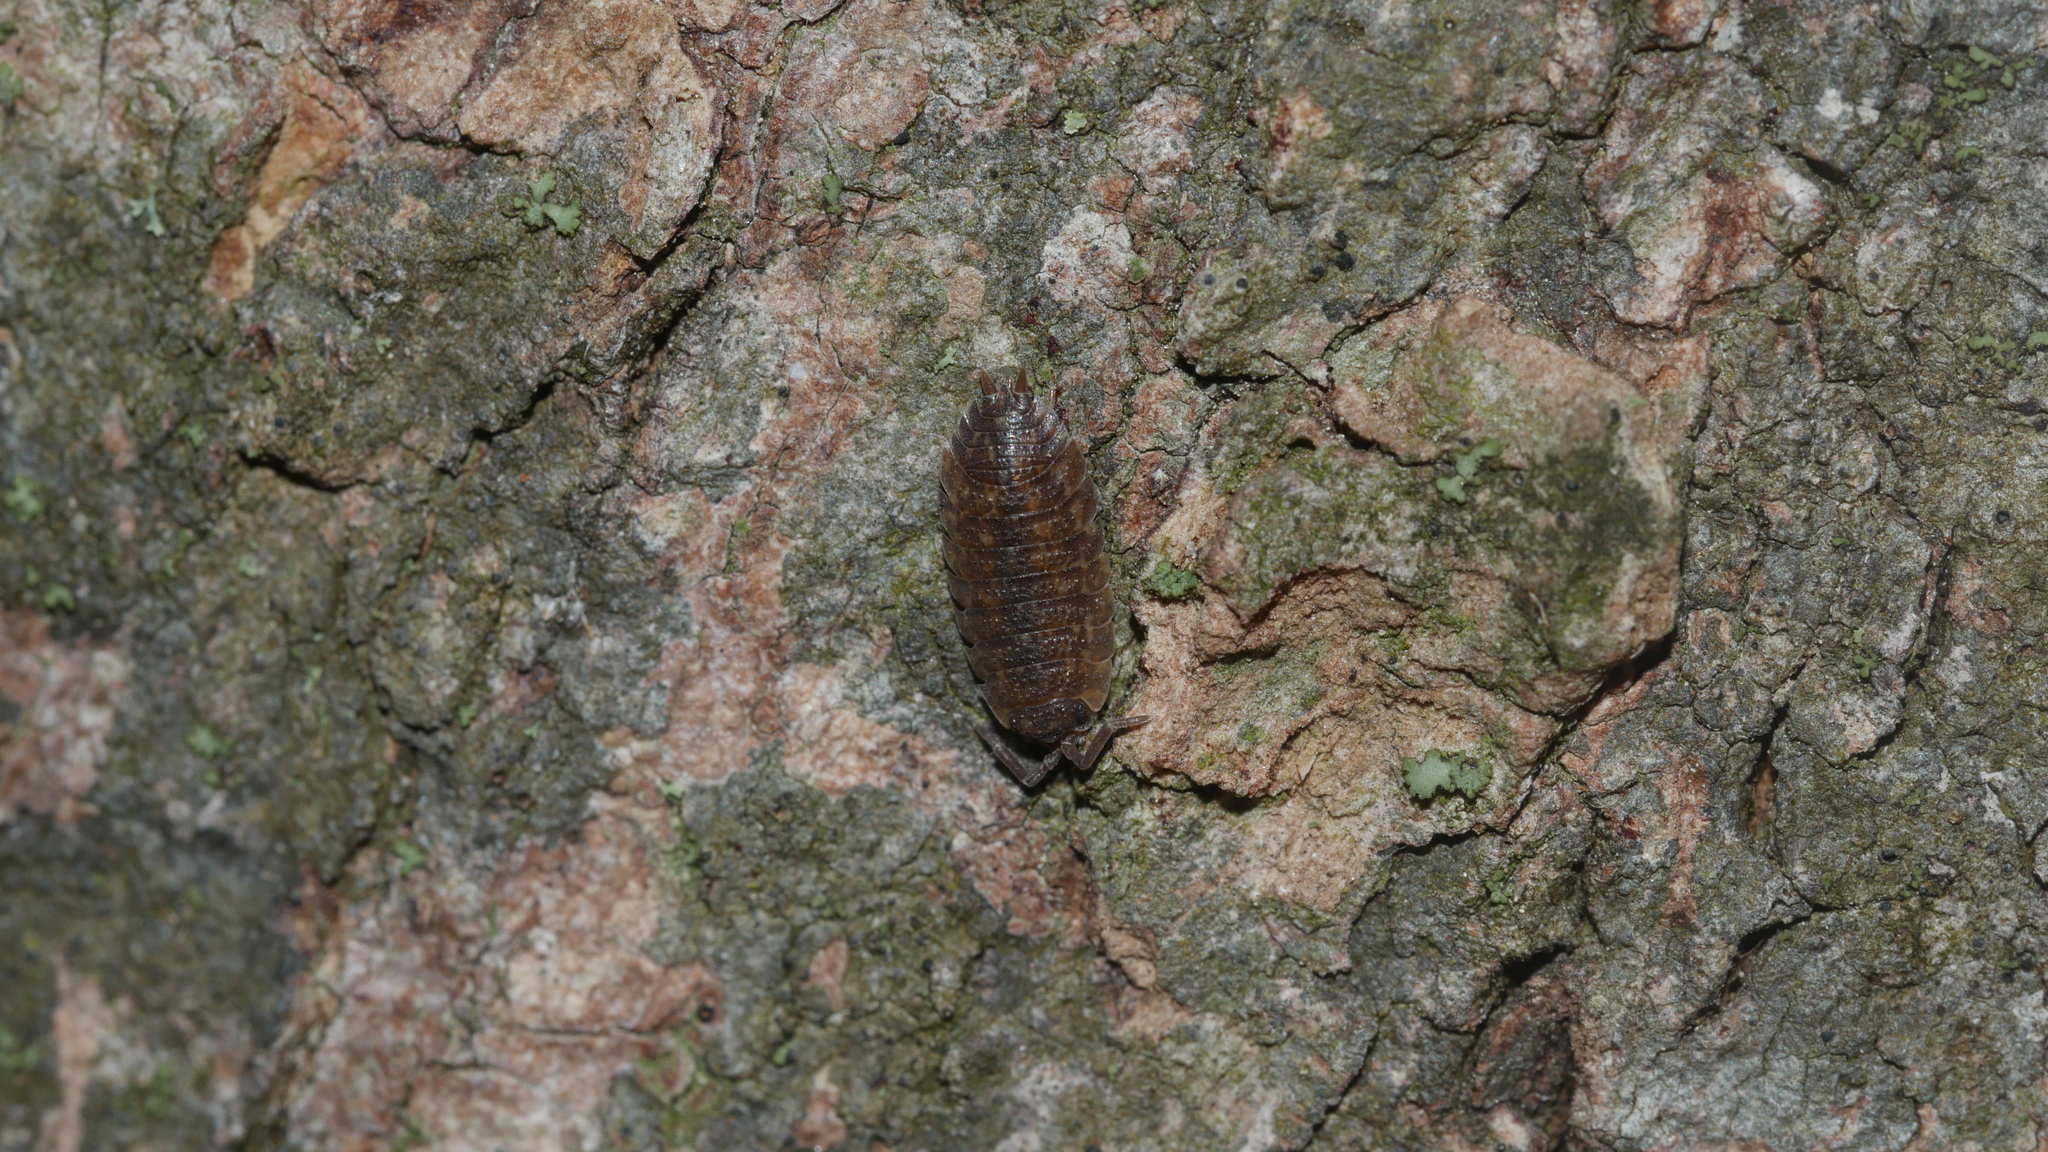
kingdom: Animalia
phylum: Arthropoda
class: Malacostraca
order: Isopoda
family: Porcellionidae
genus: Porcellio
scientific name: Porcellio scaber
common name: Common rough woodlouse
